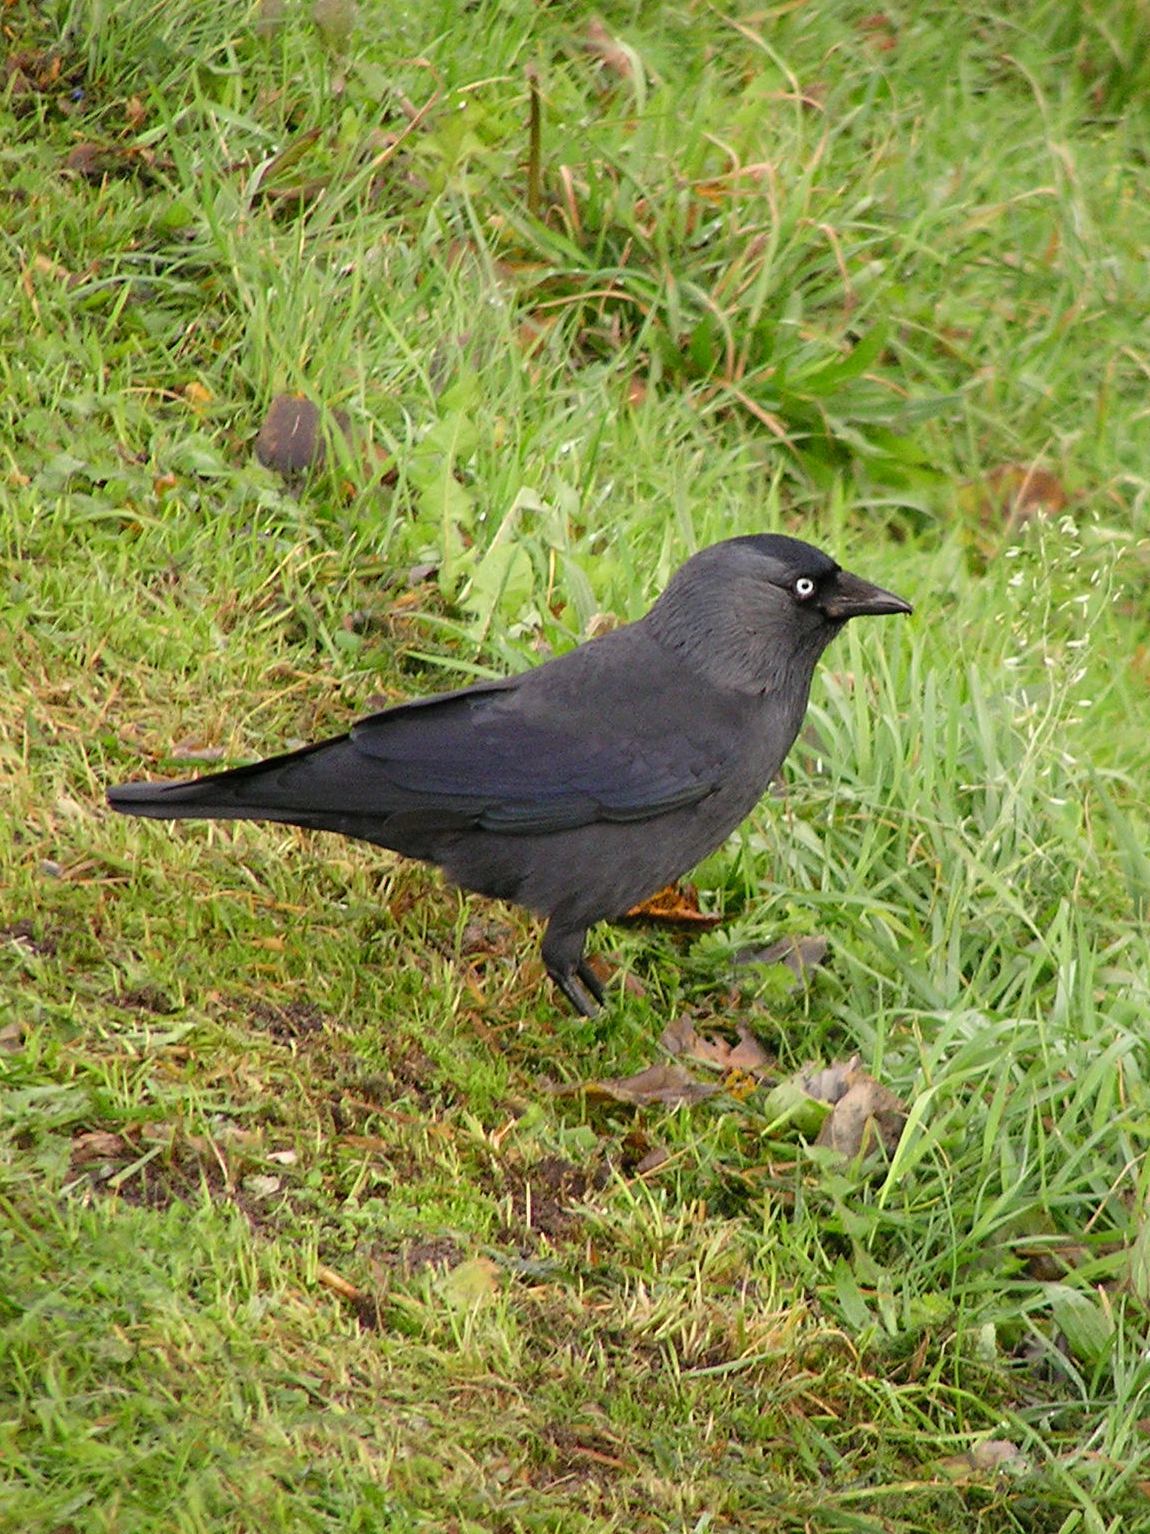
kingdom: Animalia
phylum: Chordata
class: Aves
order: Passeriformes
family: Corvidae
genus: Coloeus
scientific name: Coloeus monedula
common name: Western jackdaw
